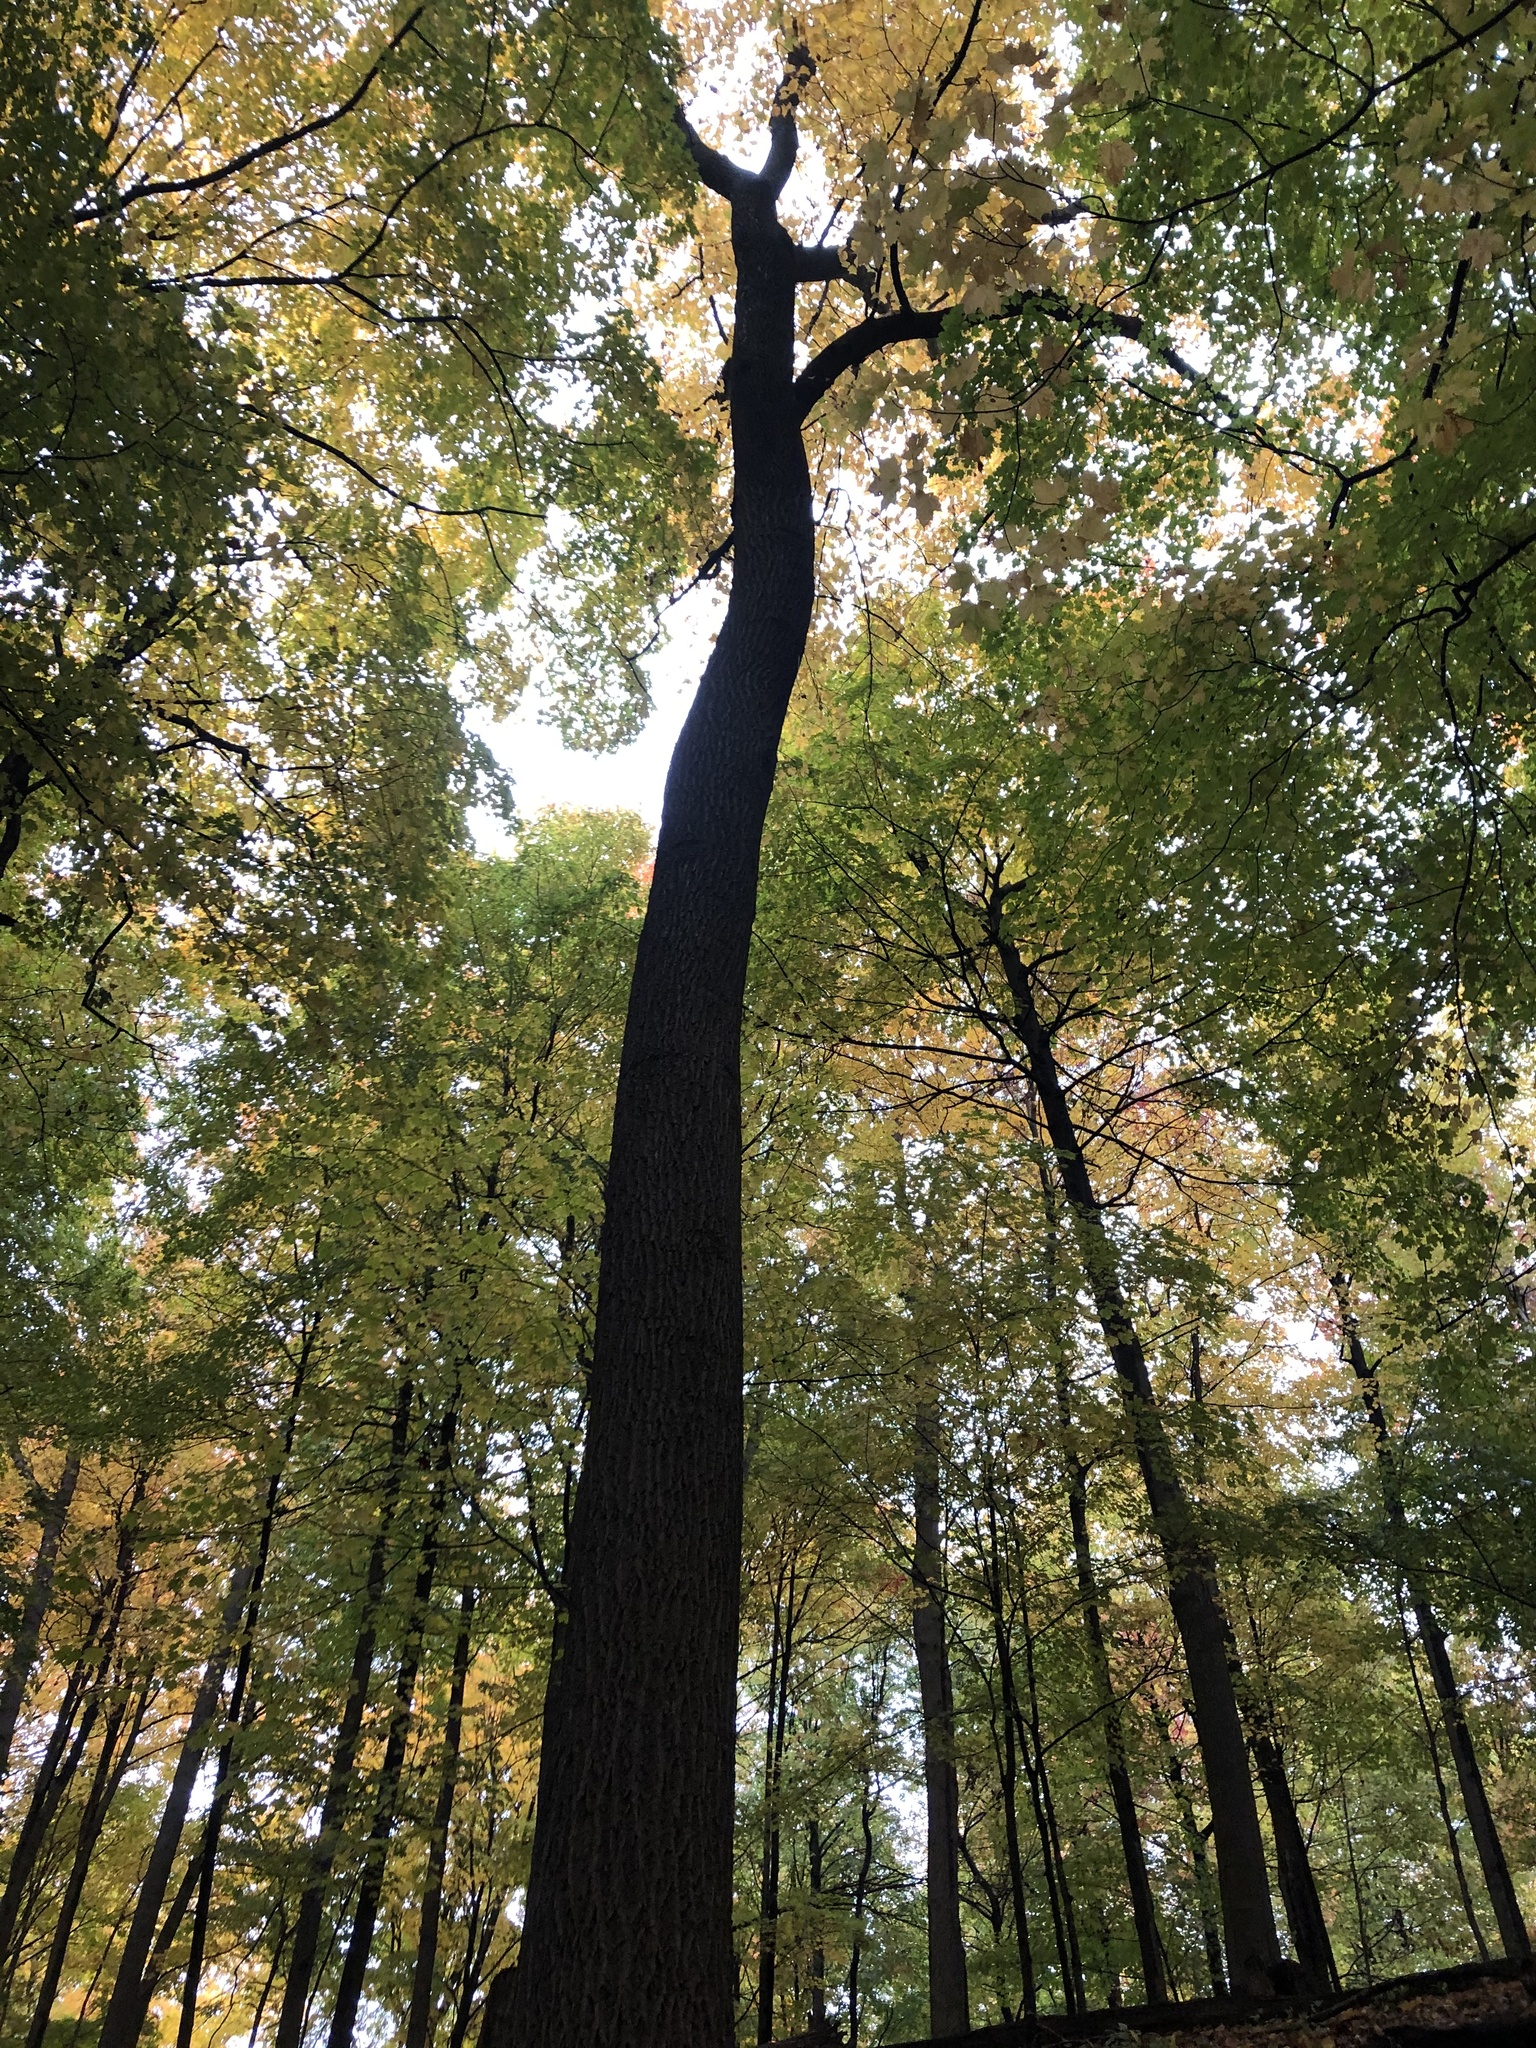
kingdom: Plantae
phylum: Tracheophyta
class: Magnoliopsida
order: Magnoliales
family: Magnoliaceae
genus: Liriodendron
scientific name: Liriodendron tulipifera
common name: Tulip tree
